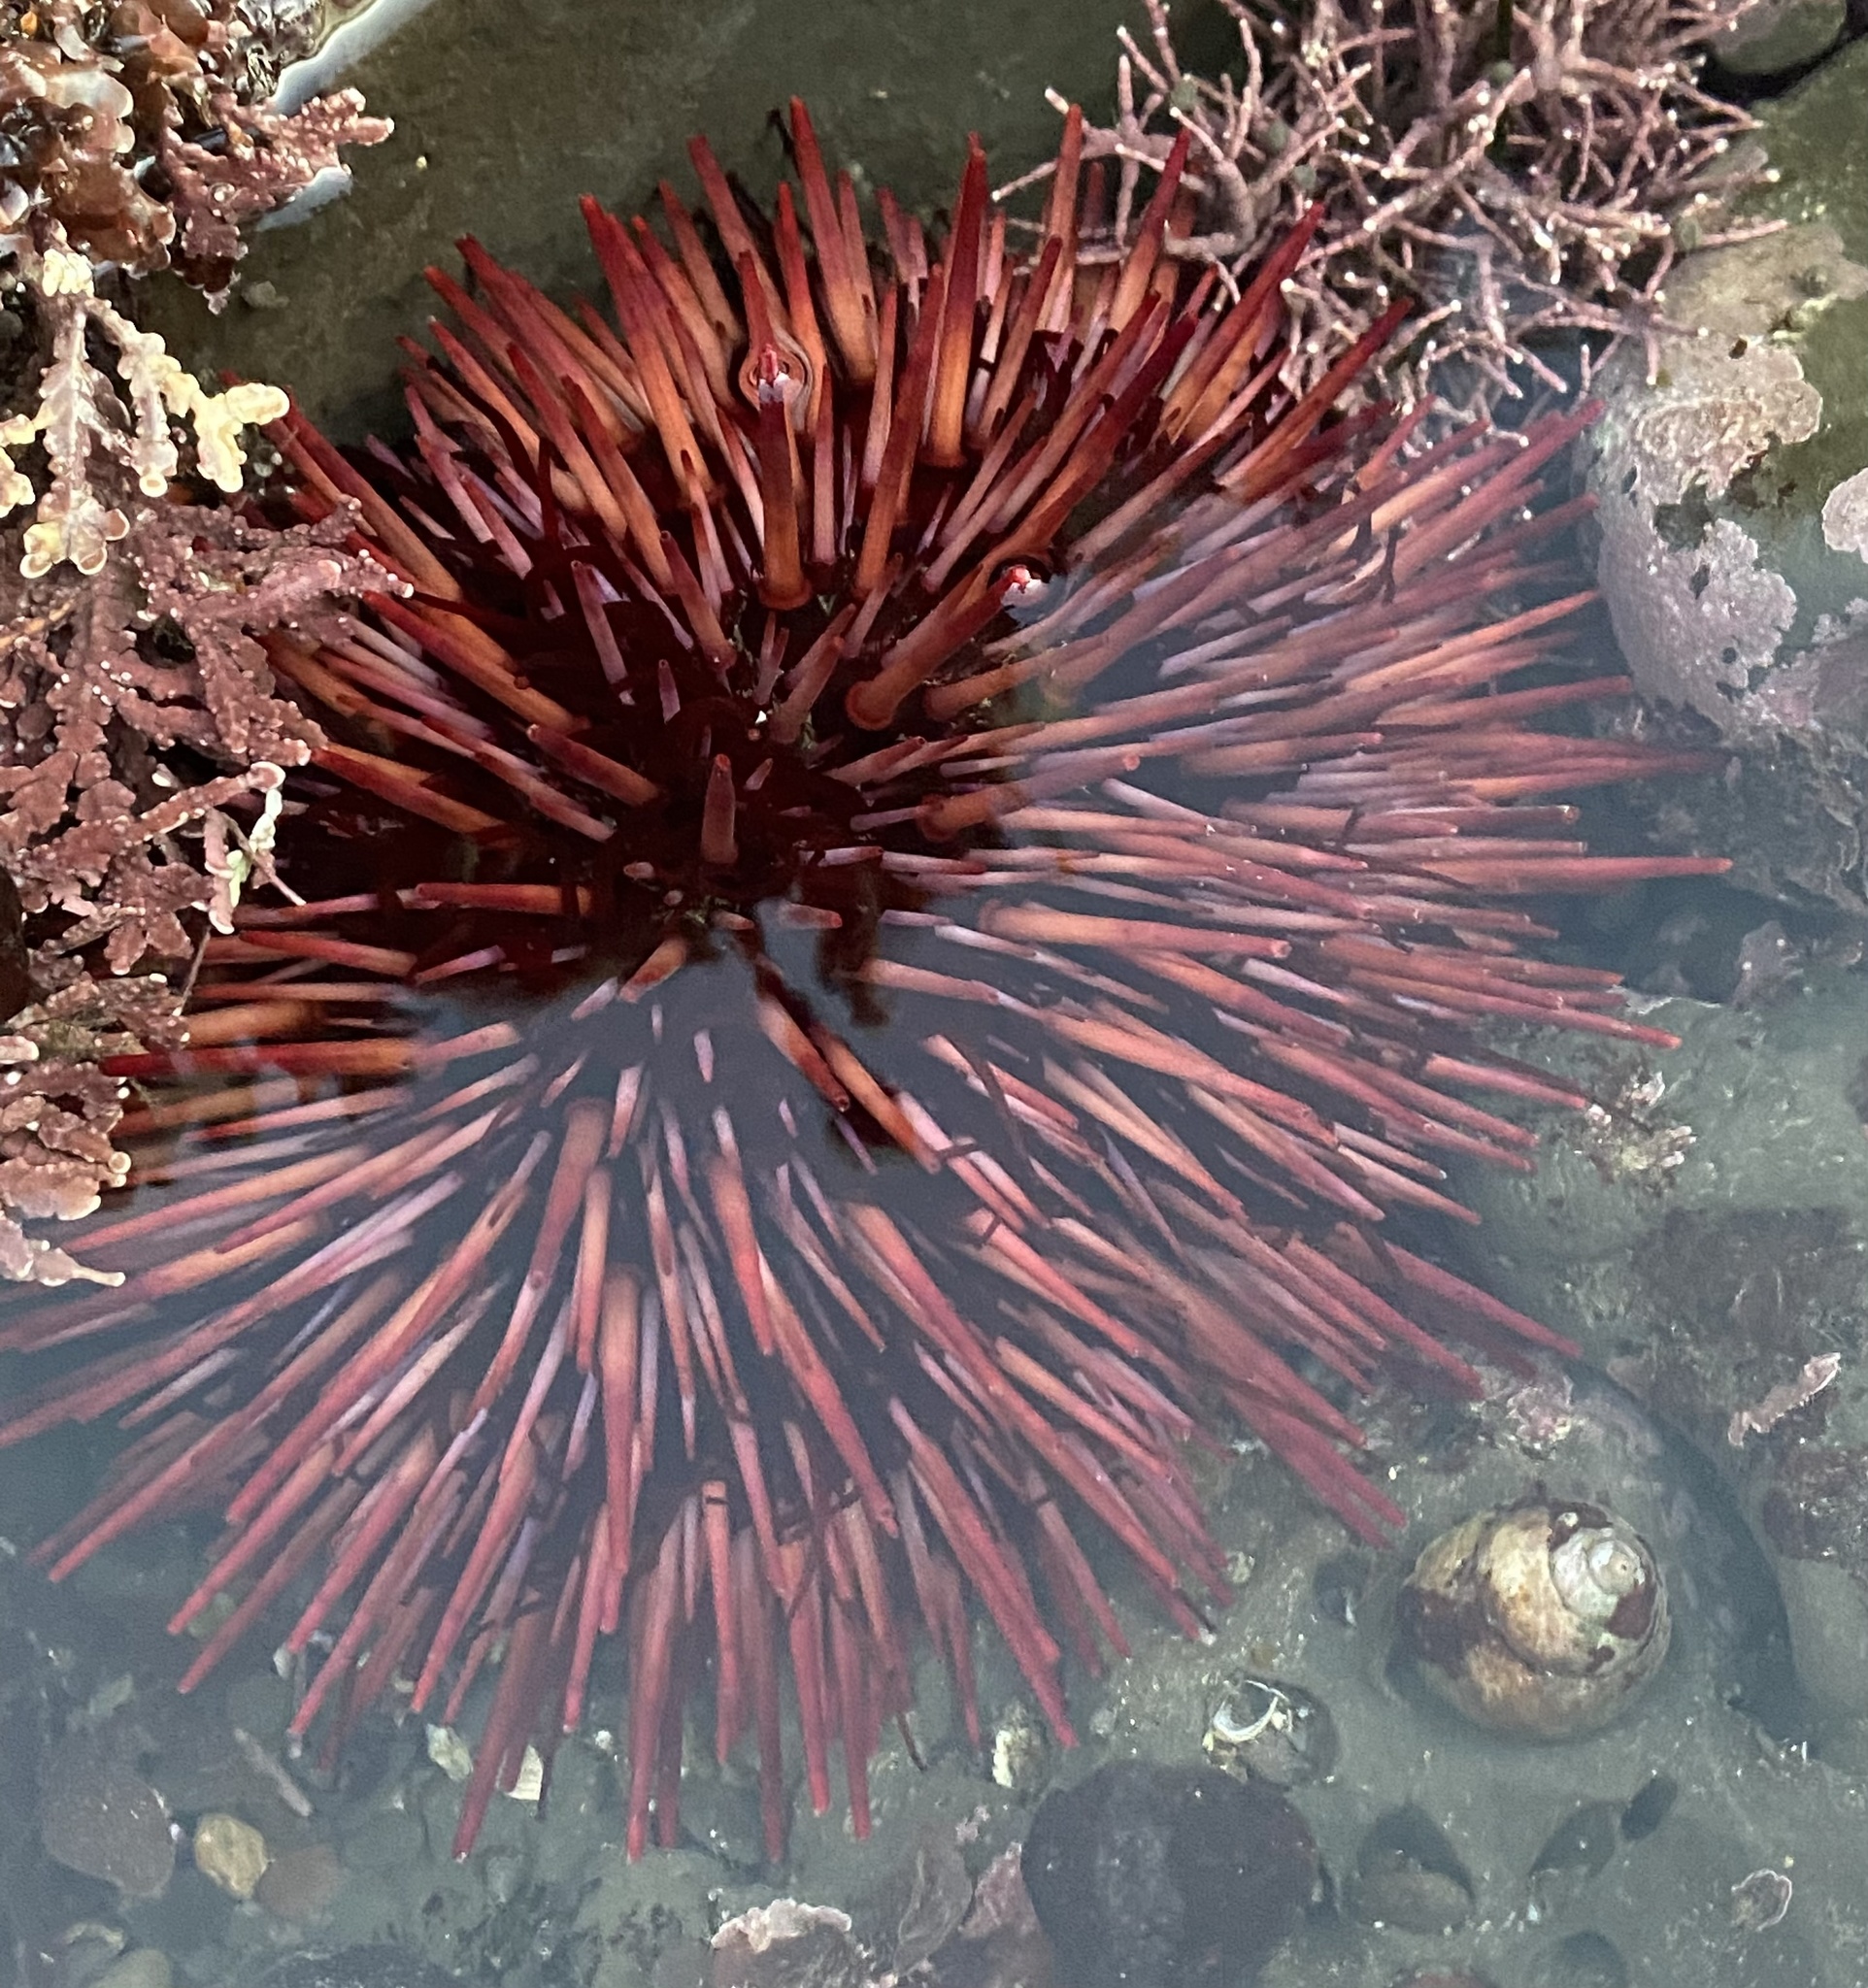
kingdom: Animalia
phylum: Echinodermata
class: Echinoidea
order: Camarodonta
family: Strongylocentrotidae
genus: Mesocentrotus
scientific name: Mesocentrotus franciscanus
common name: Red sea urchin
